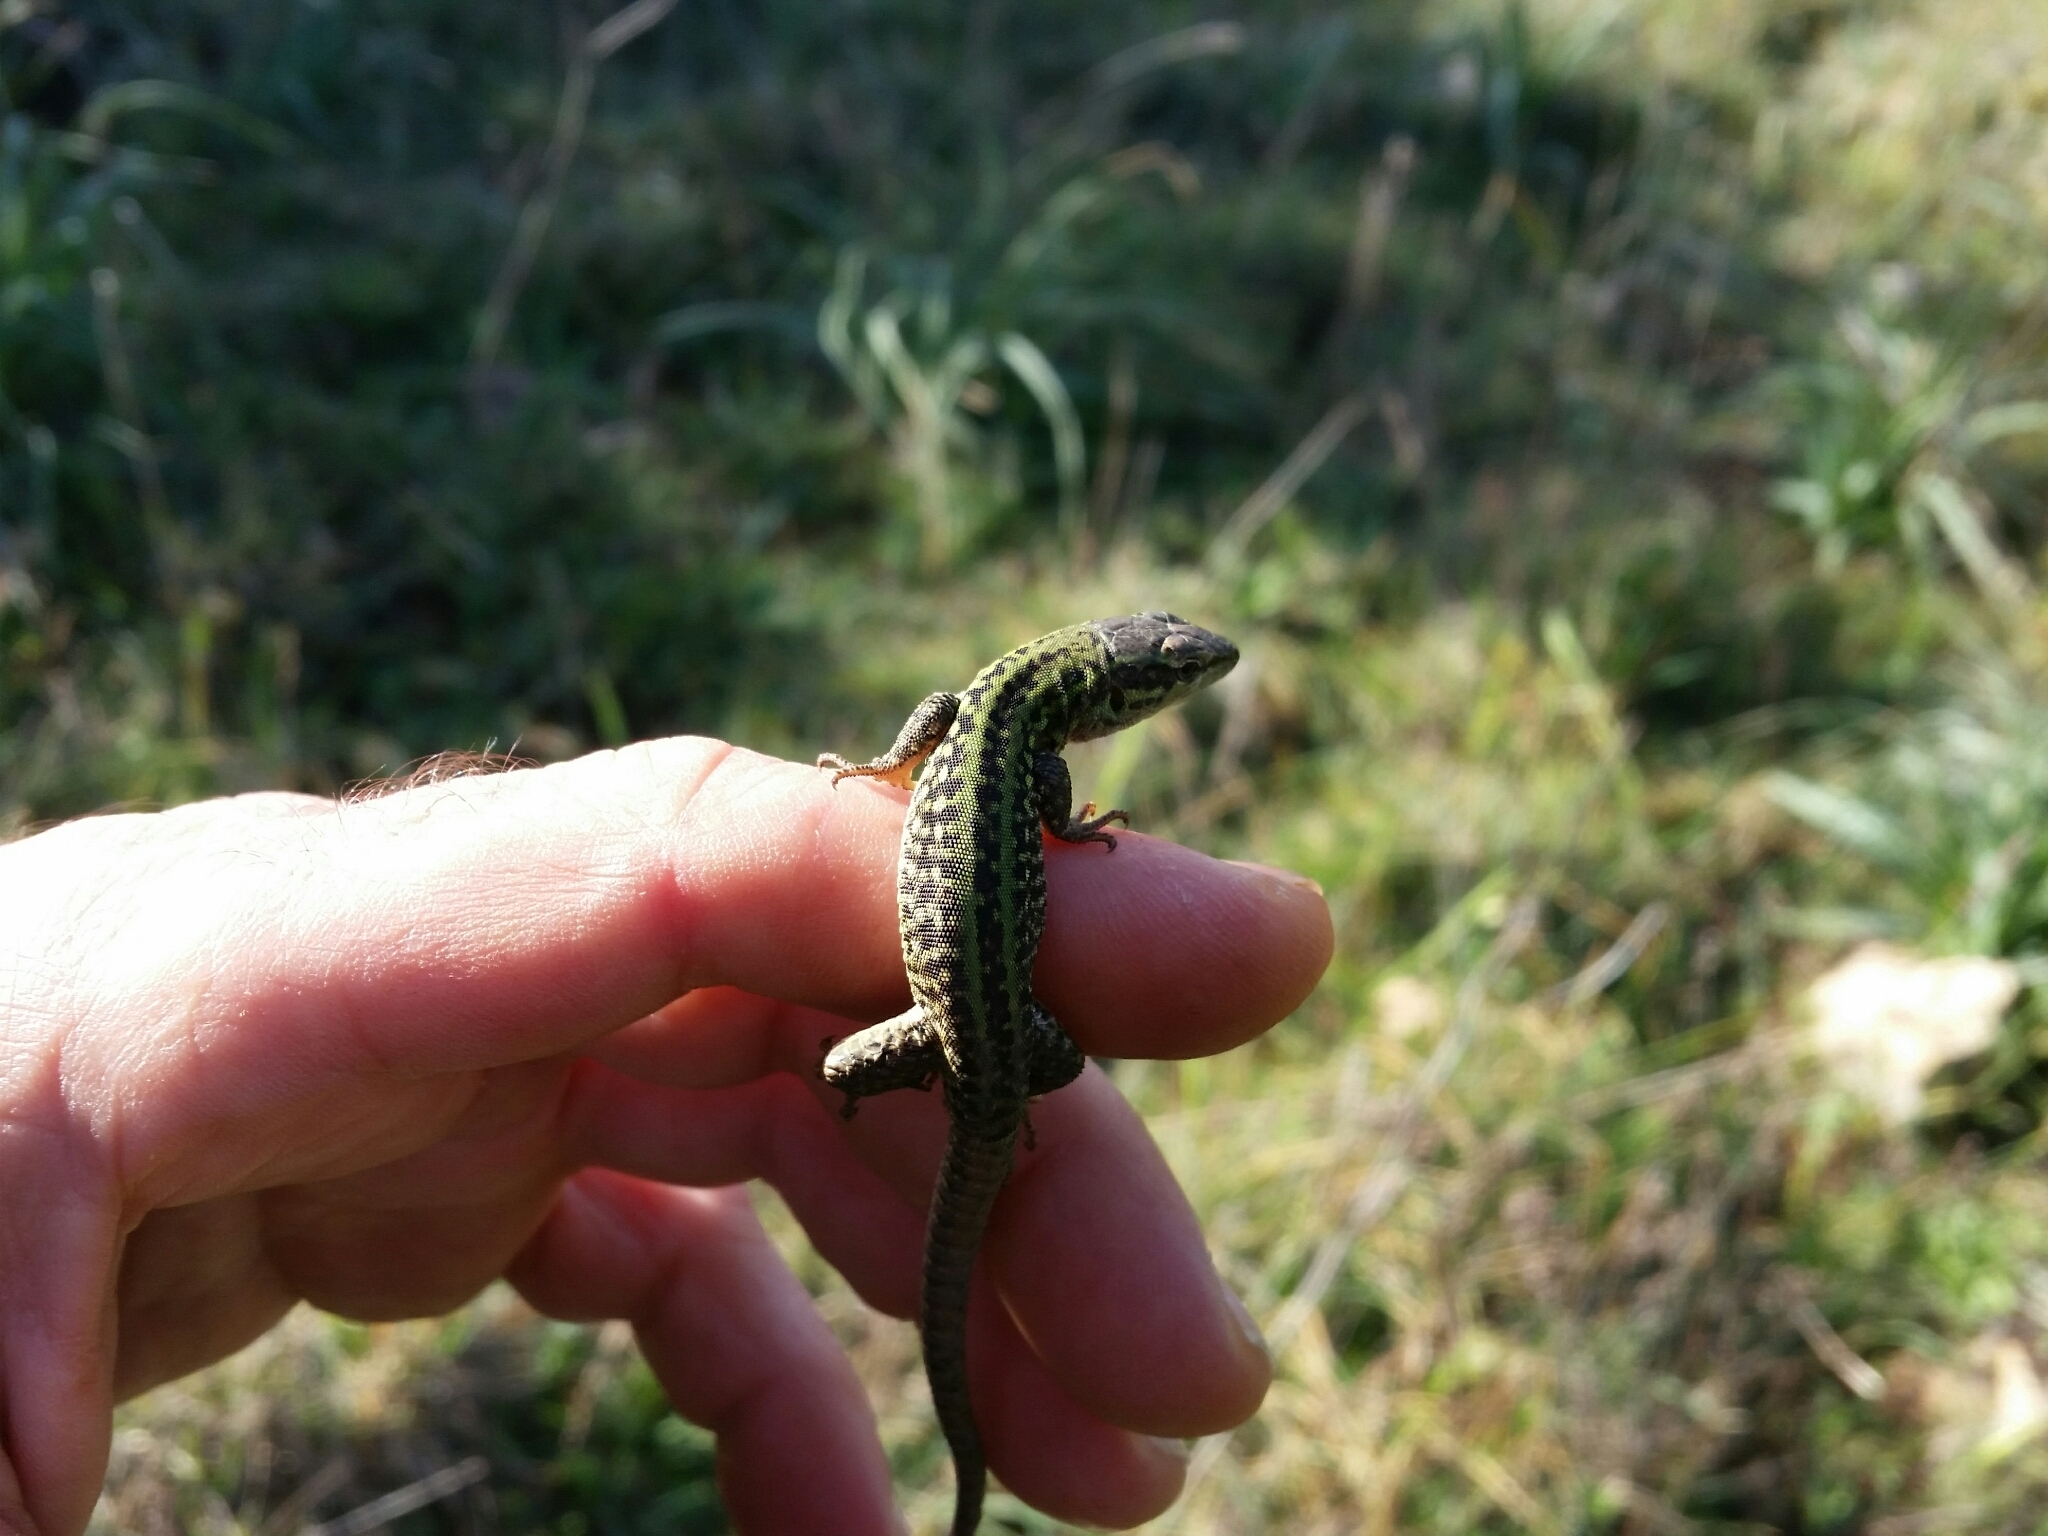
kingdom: Animalia
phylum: Chordata
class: Squamata
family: Lacertidae
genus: Podarcis
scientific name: Podarcis siculus
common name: Italian wall lizard
